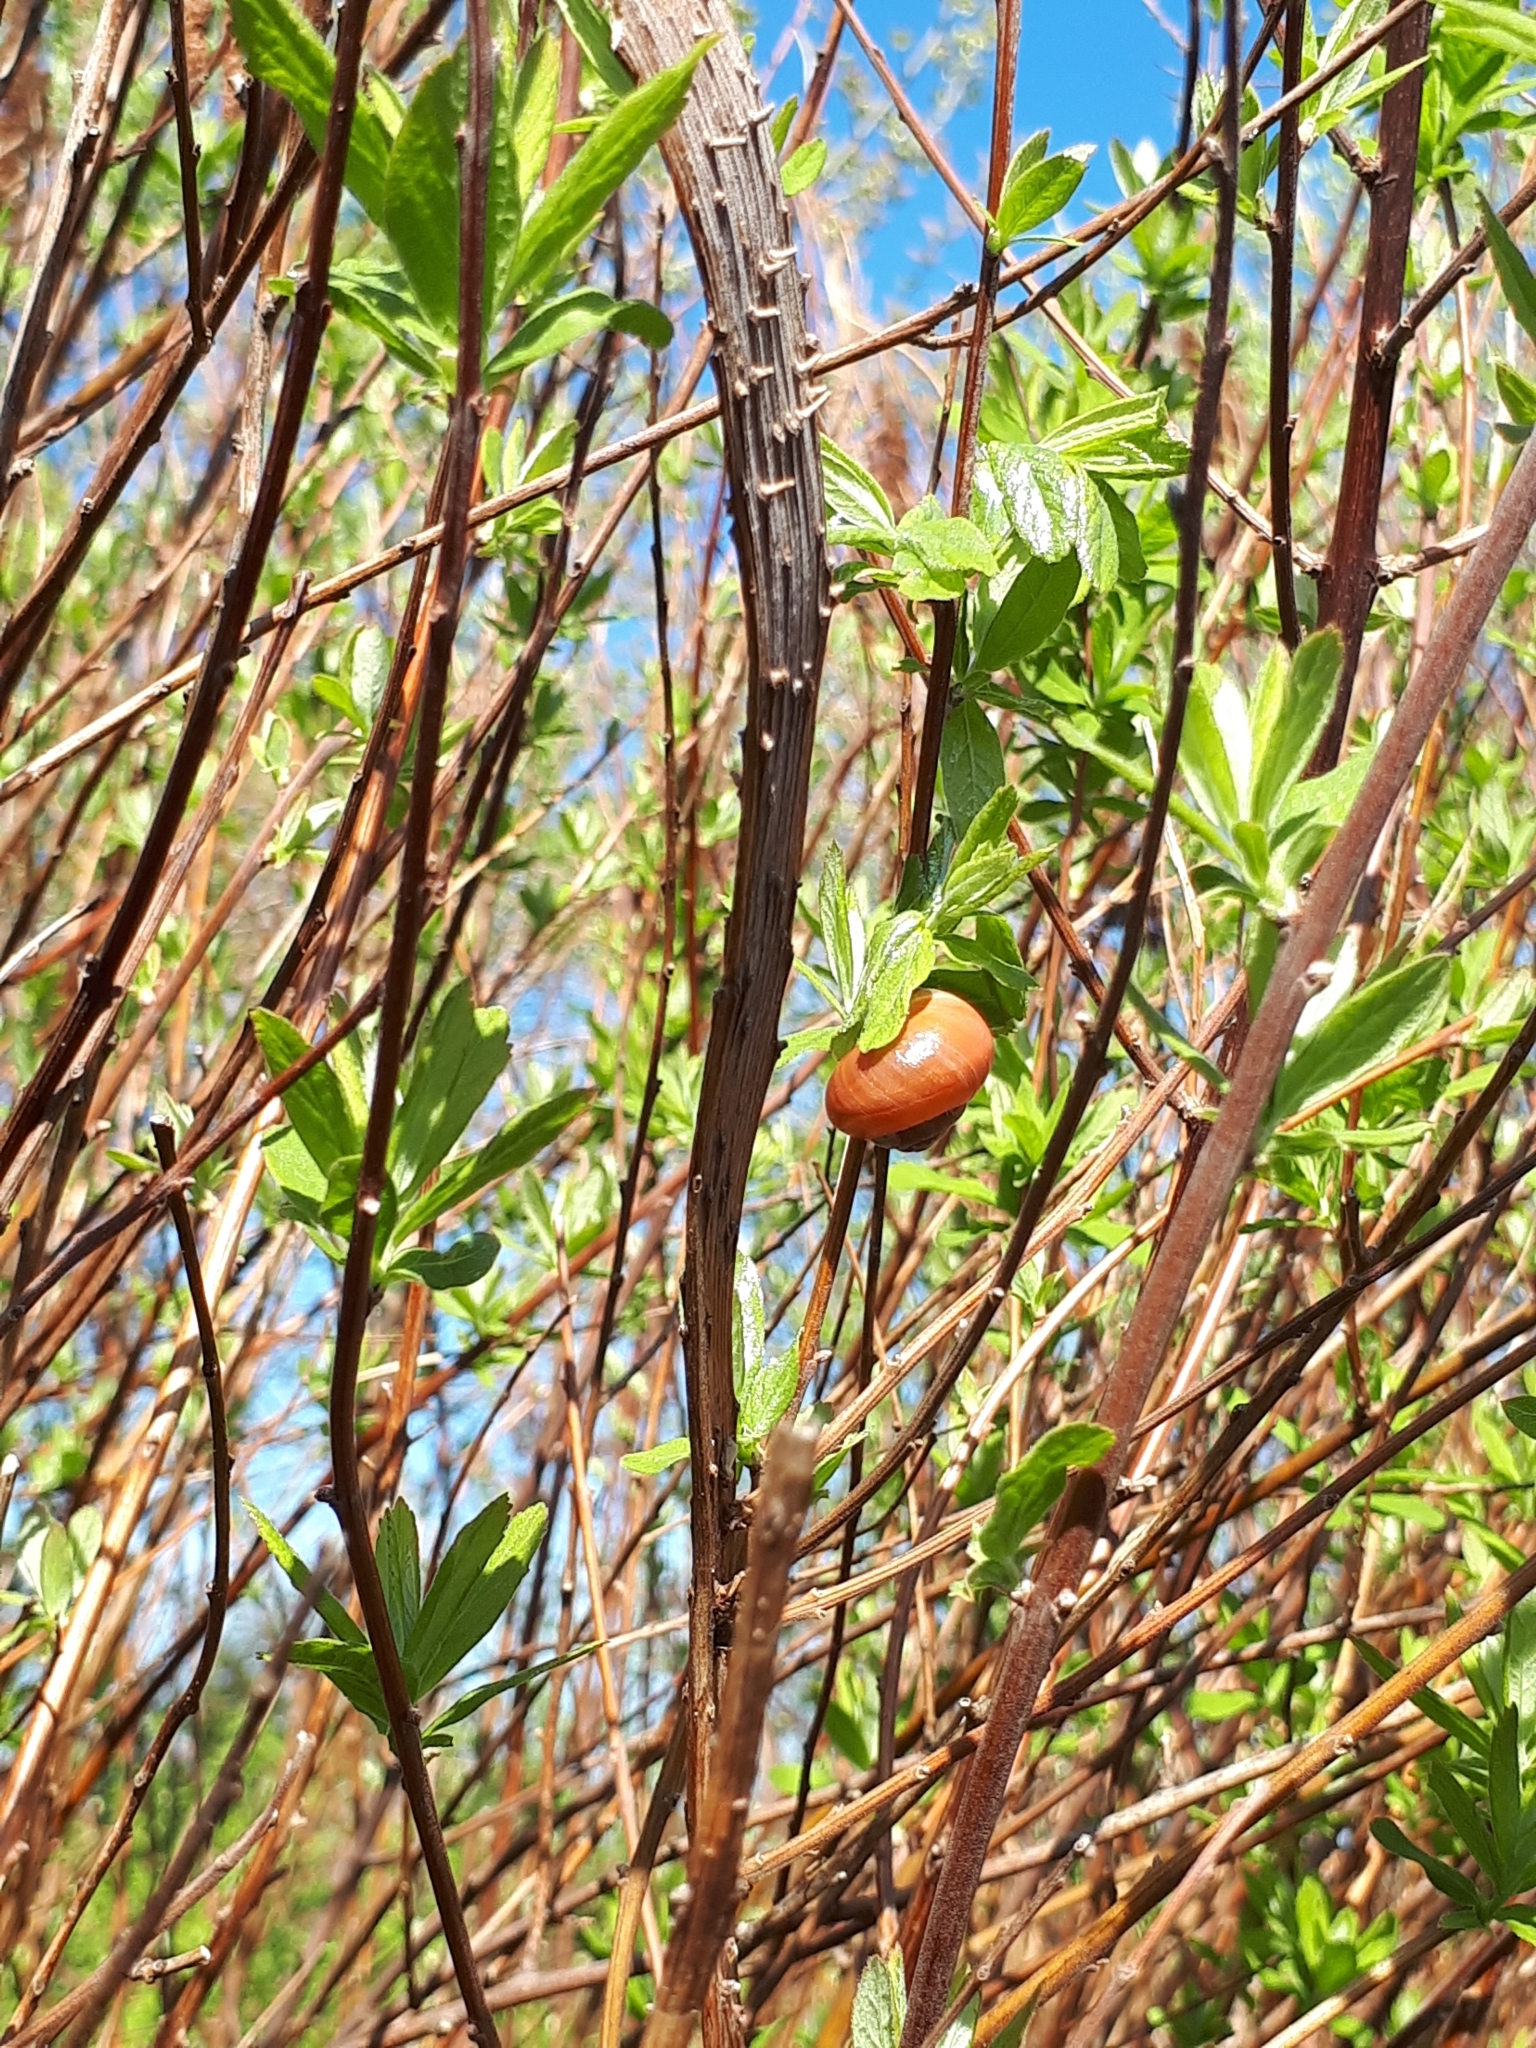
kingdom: Animalia
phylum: Mollusca
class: Gastropoda
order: Stylommatophora
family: Helicidae
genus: Cepaea
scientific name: Cepaea nemoralis
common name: Grovesnail
